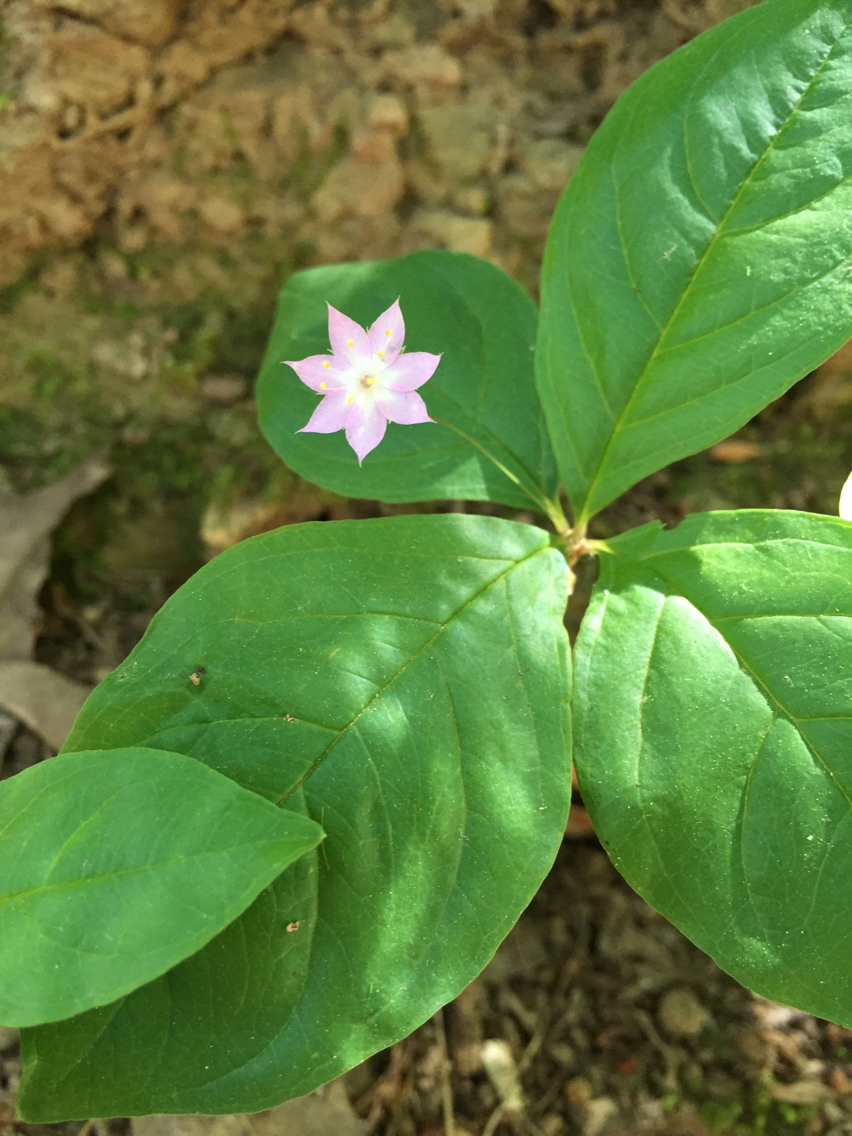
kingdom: Plantae
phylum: Tracheophyta
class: Magnoliopsida
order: Ericales
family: Primulaceae
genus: Lysimachia
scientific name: Lysimachia latifolia
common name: Pacific starflower
